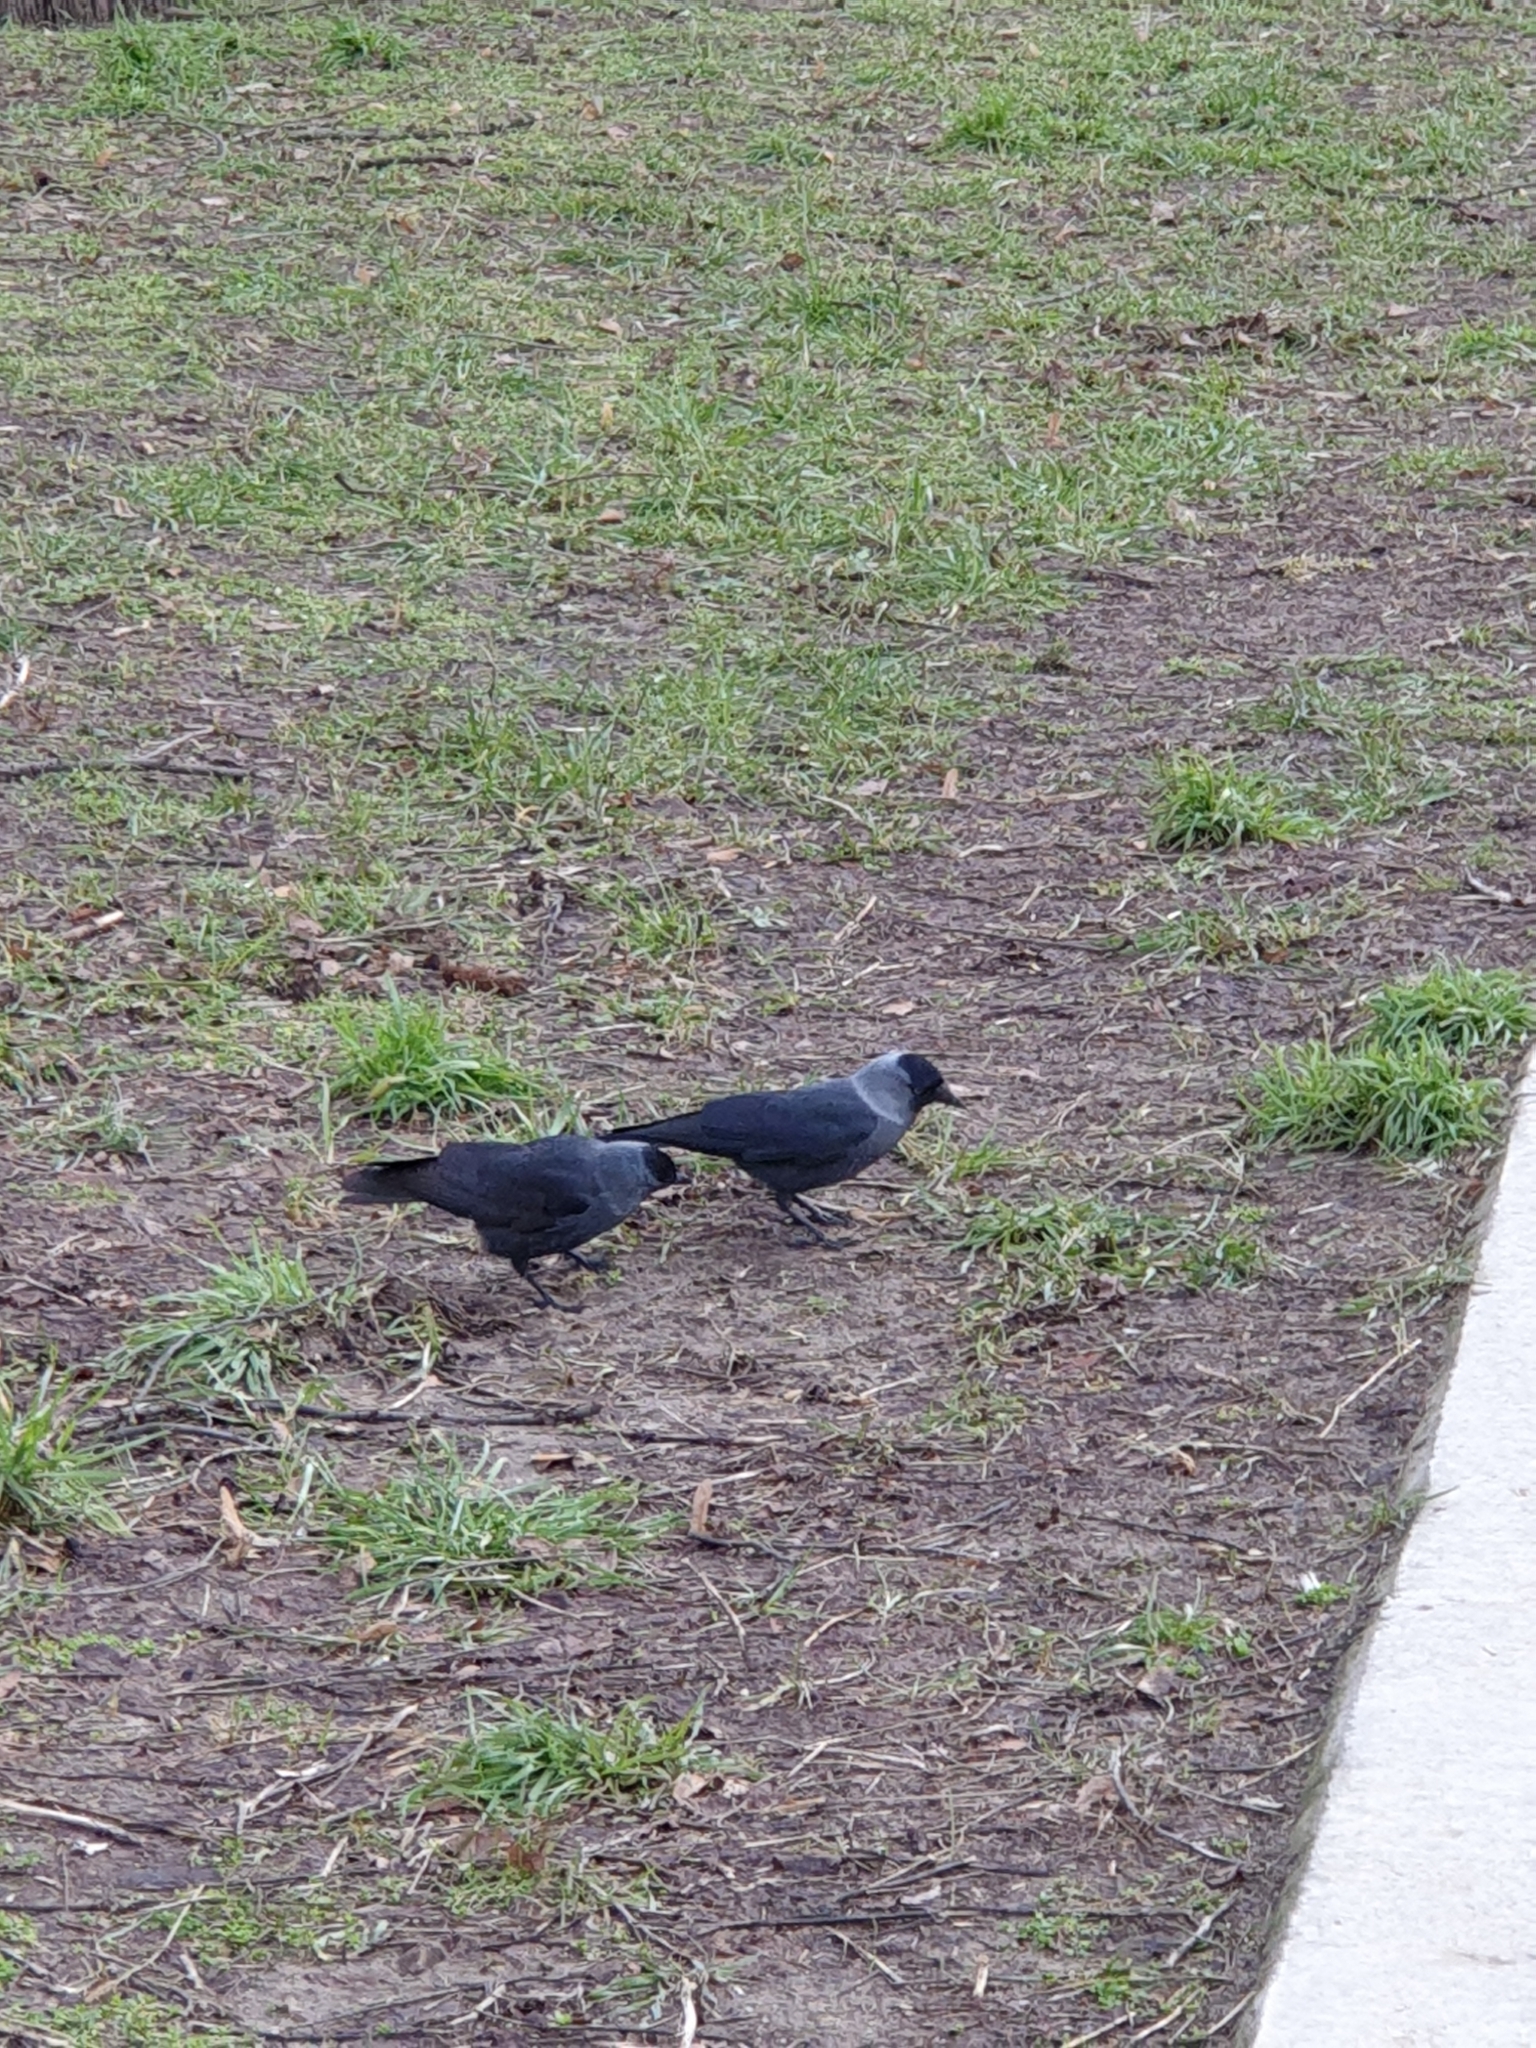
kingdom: Animalia
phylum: Chordata
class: Aves
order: Passeriformes
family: Corvidae
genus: Coloeus
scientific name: Coloeus monedula
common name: Western jackdaw
